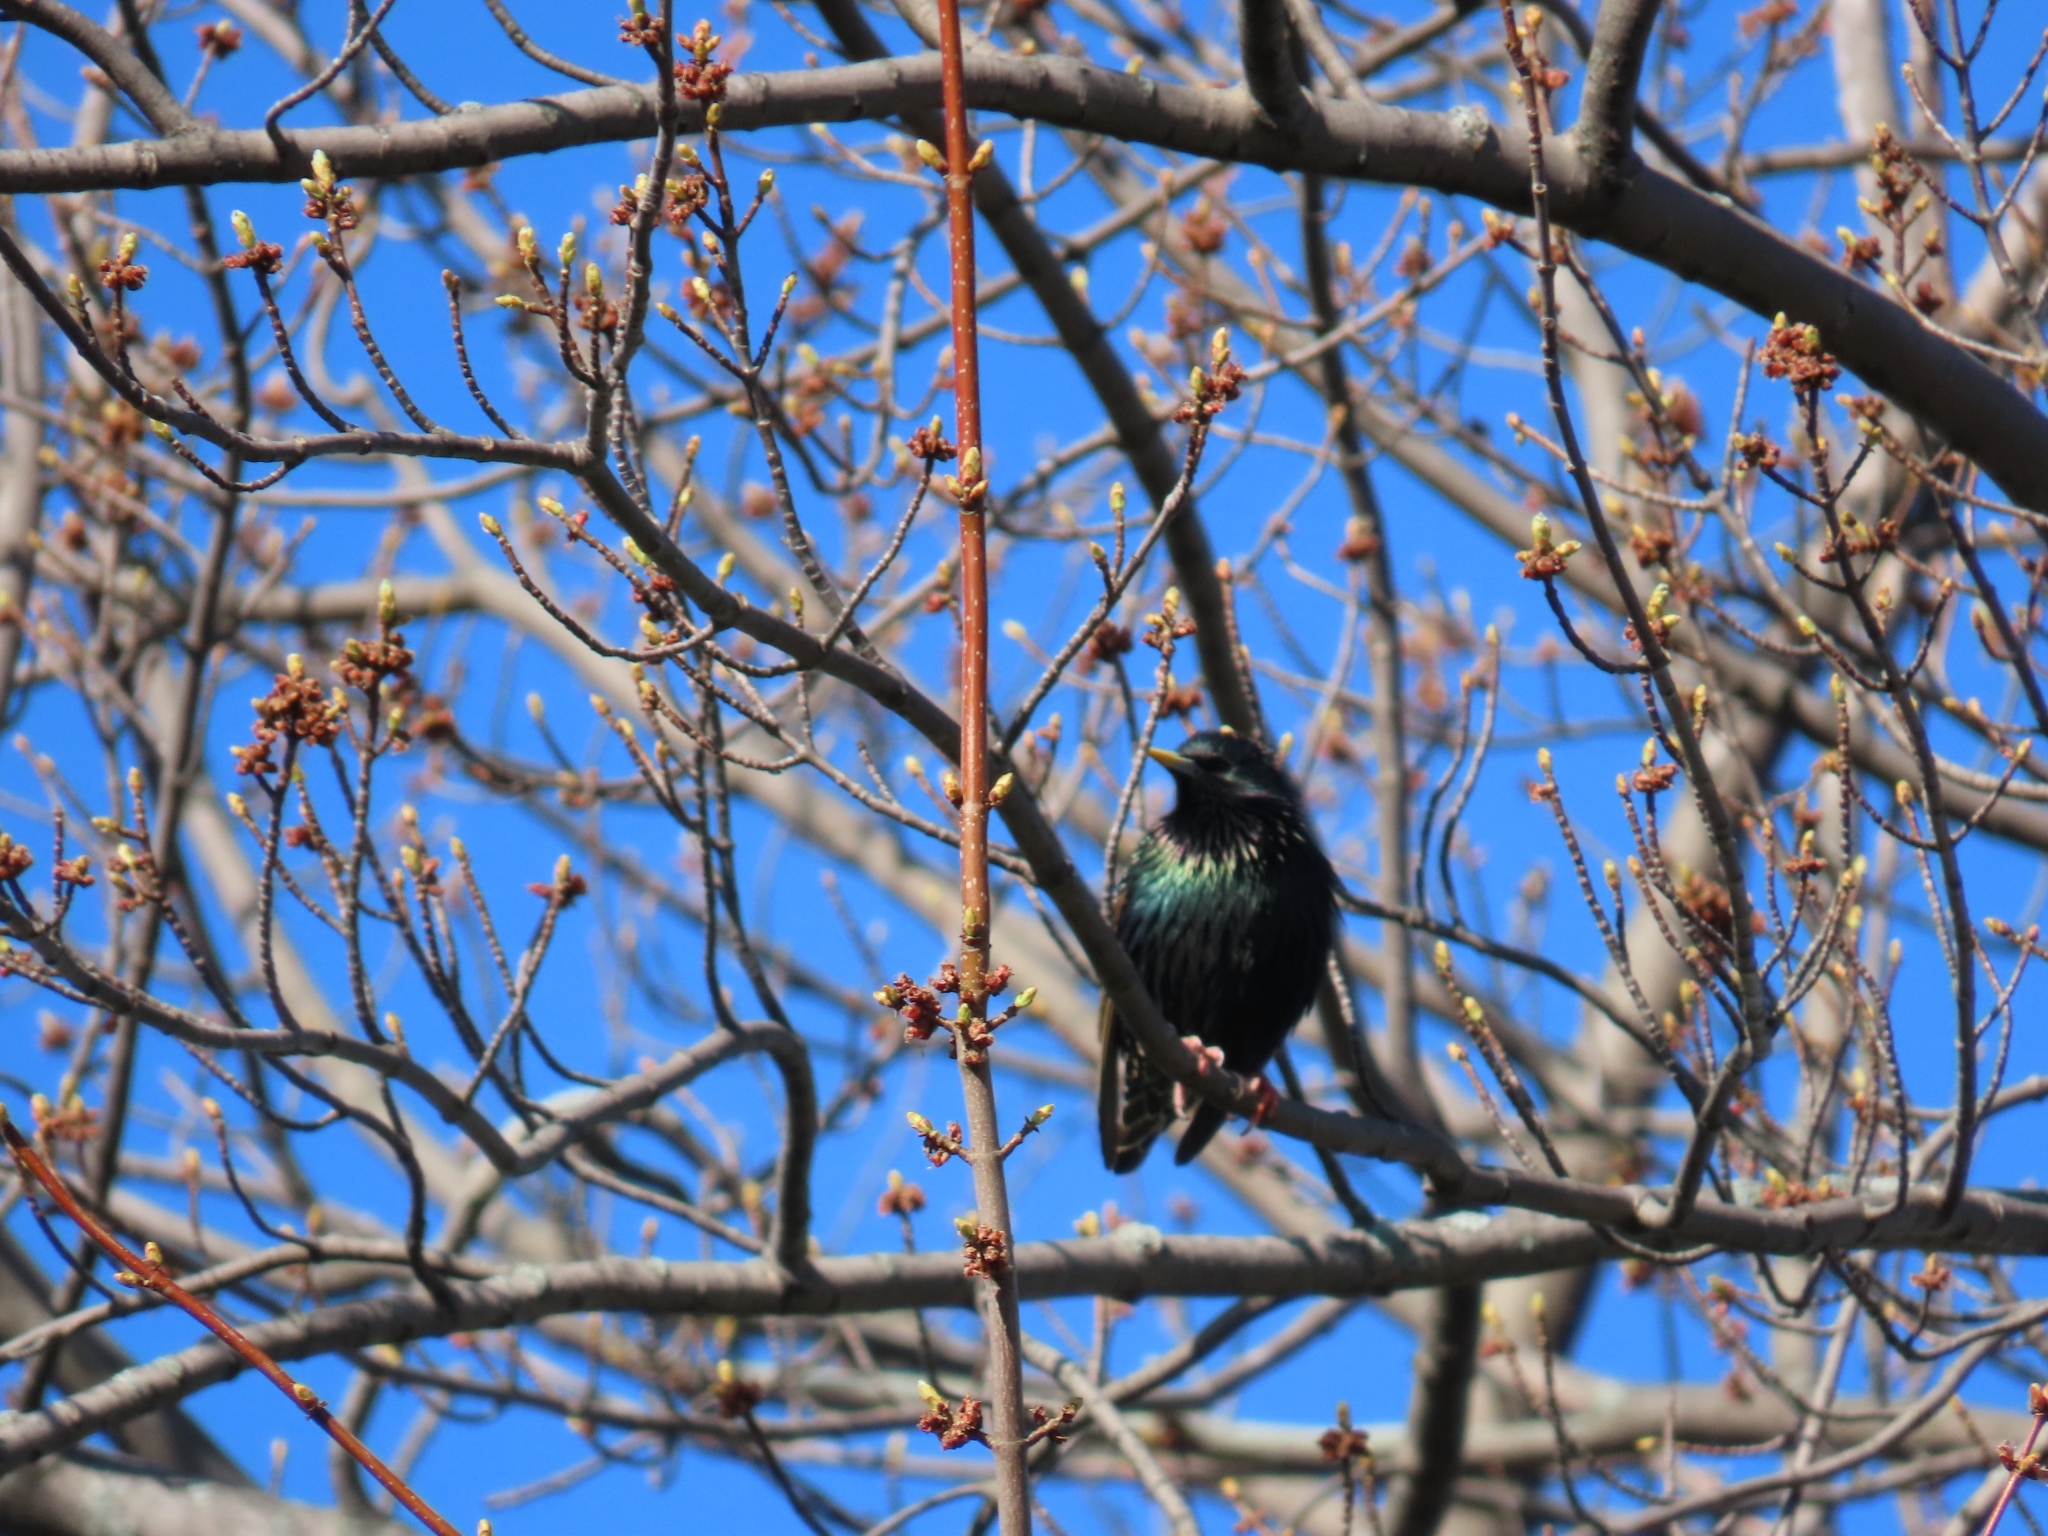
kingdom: Animalia
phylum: Chordata
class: Aves
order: Passeriformes
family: Sturnidae
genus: Sturnus
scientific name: Sturnus vulgaris
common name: Common starling
